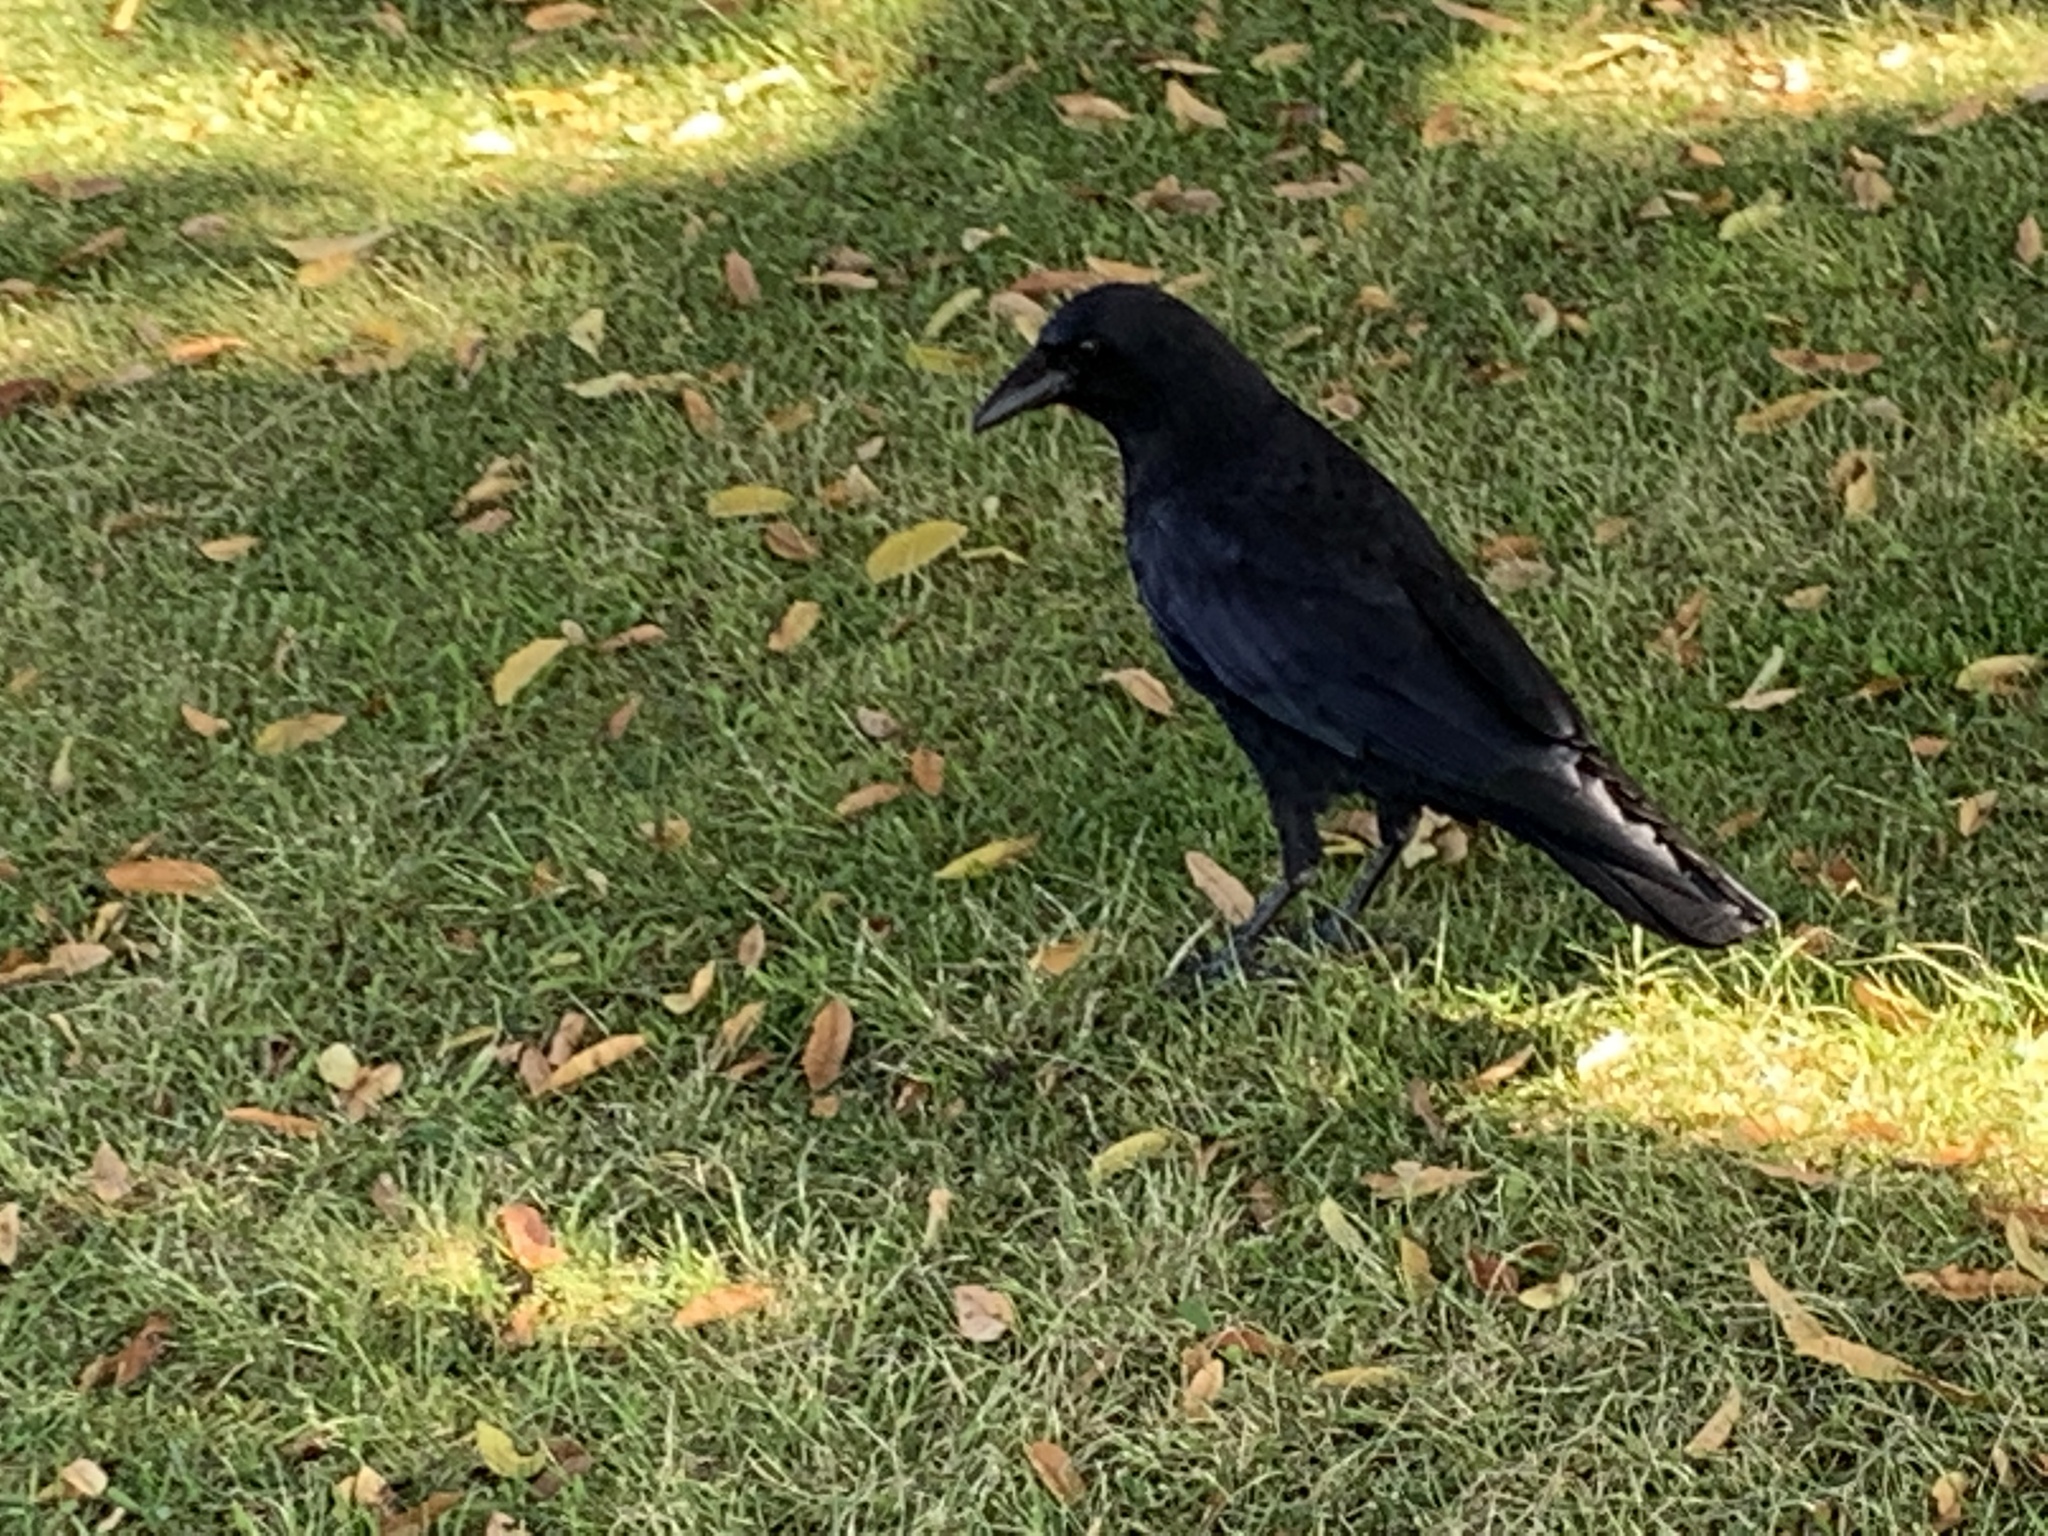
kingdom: Animalia
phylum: Chordata
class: Aves
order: Passeriformes
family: Corvidae
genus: Corvus
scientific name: Corvus brachyrhynchos
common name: American crow
